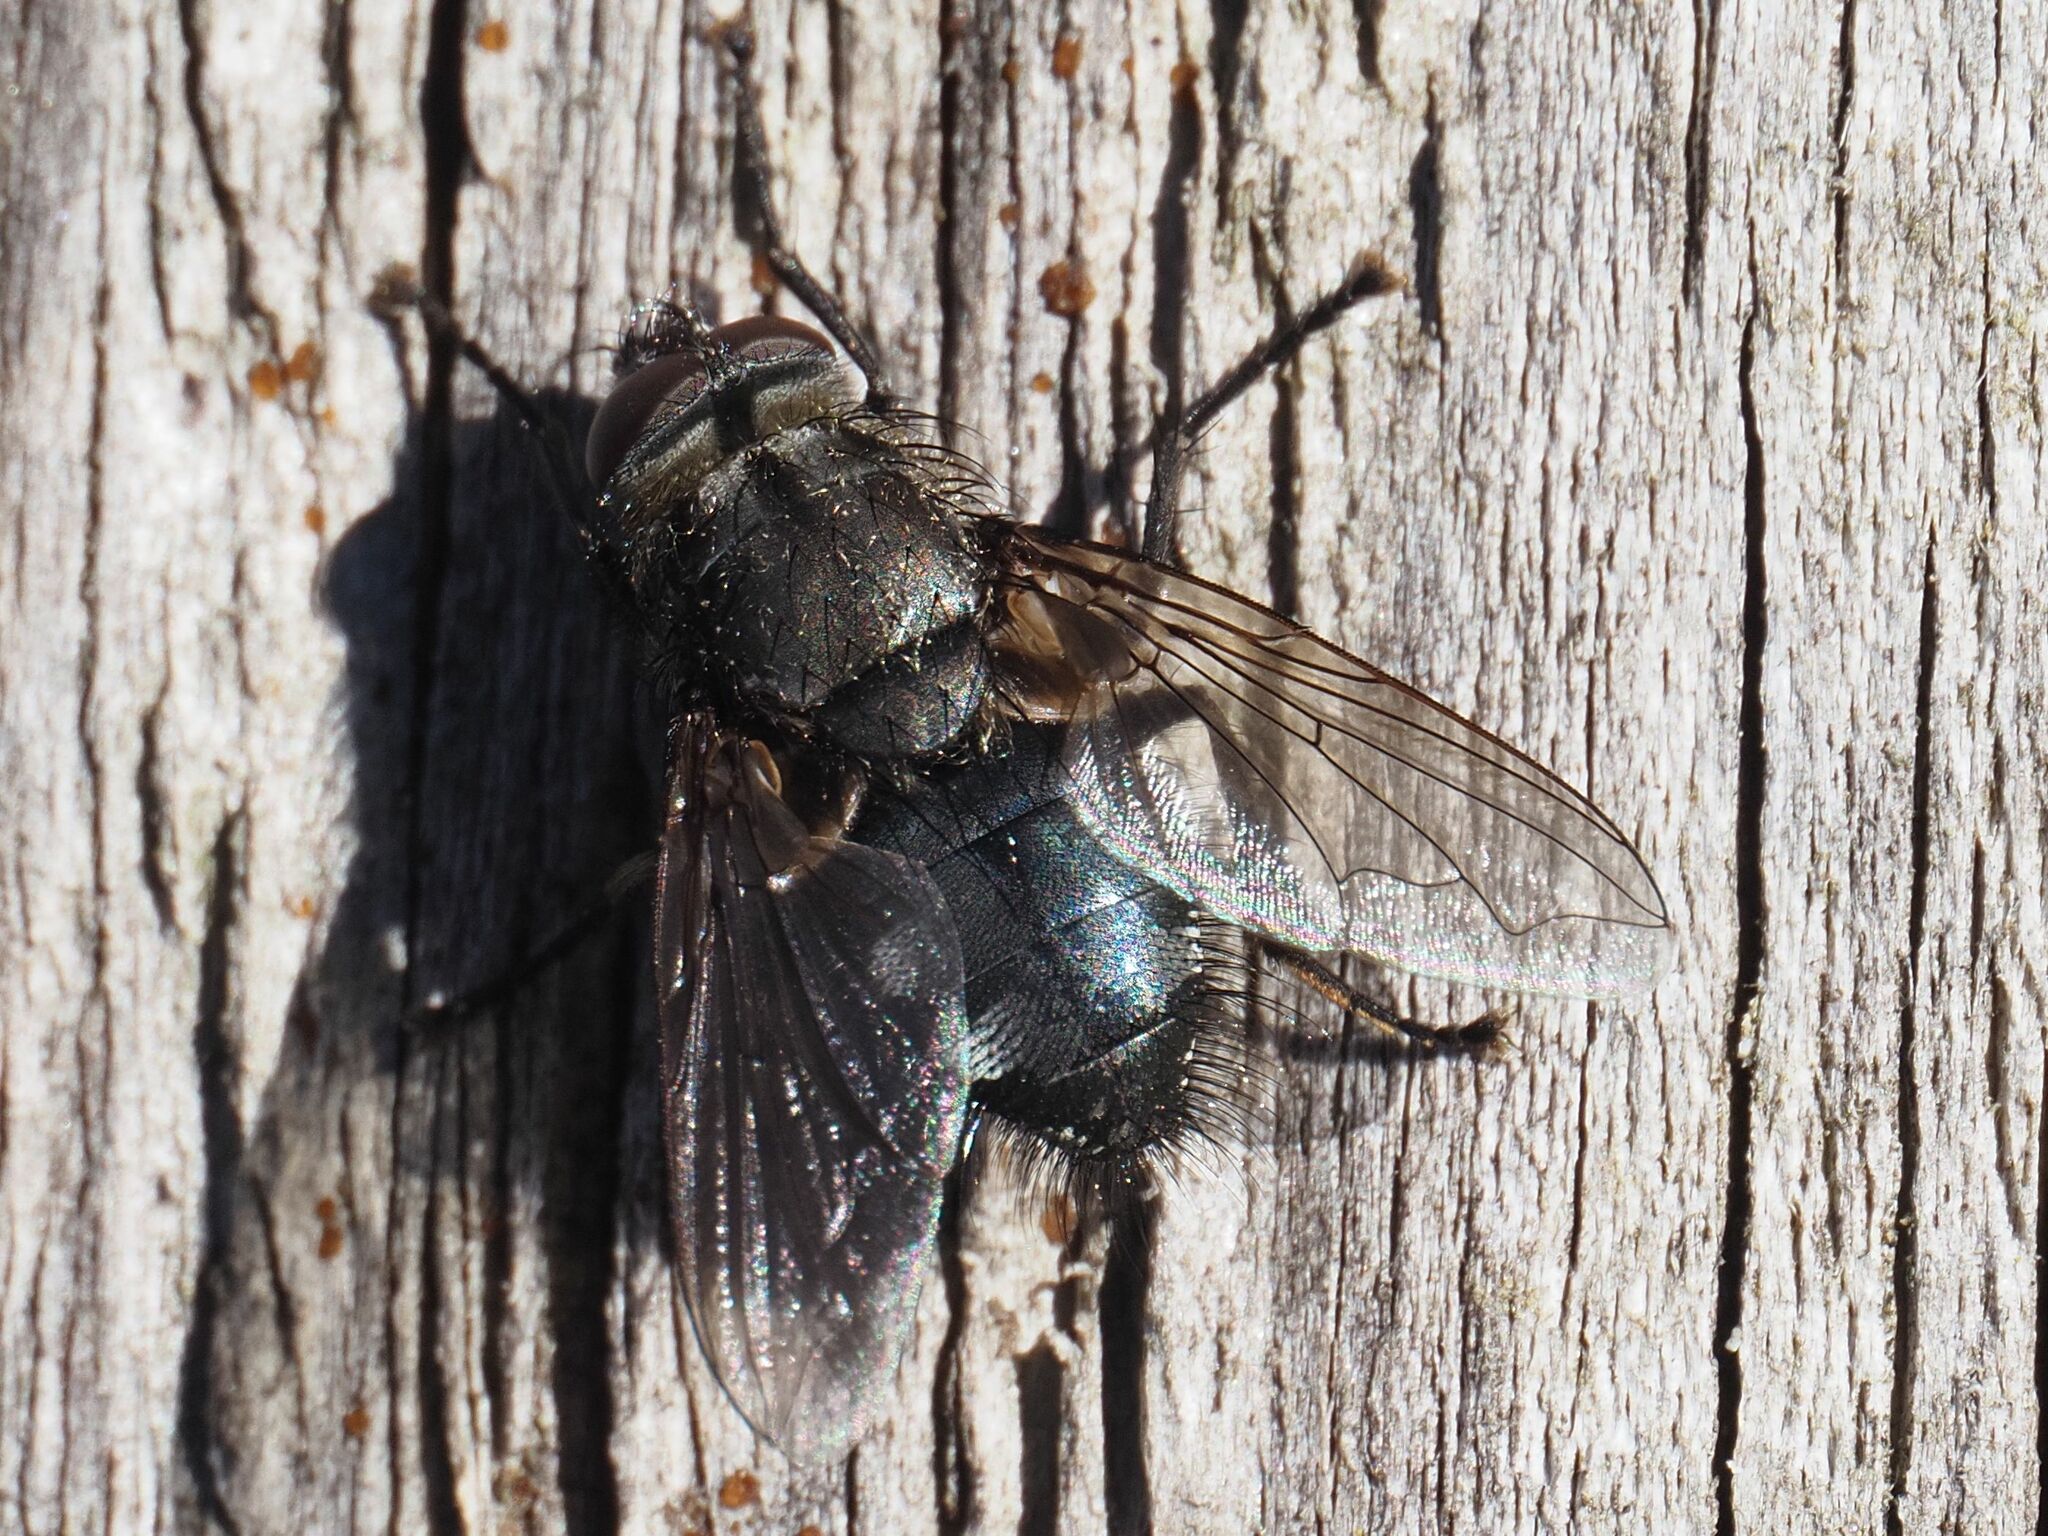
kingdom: Animalia
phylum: Arthropoda
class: Insecta
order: Diptera
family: Polleniidae
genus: Pollenia
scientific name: Pollenia vagabunda
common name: Vagabund cluster fly
